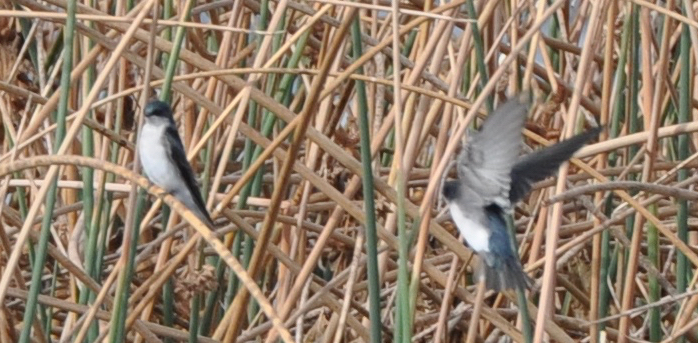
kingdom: Animalia
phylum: Chordata
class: Aves
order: Passeriformes
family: Hirundinidae
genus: Tachycineta
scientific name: Tachycineta bicolor
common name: Tree swallow
